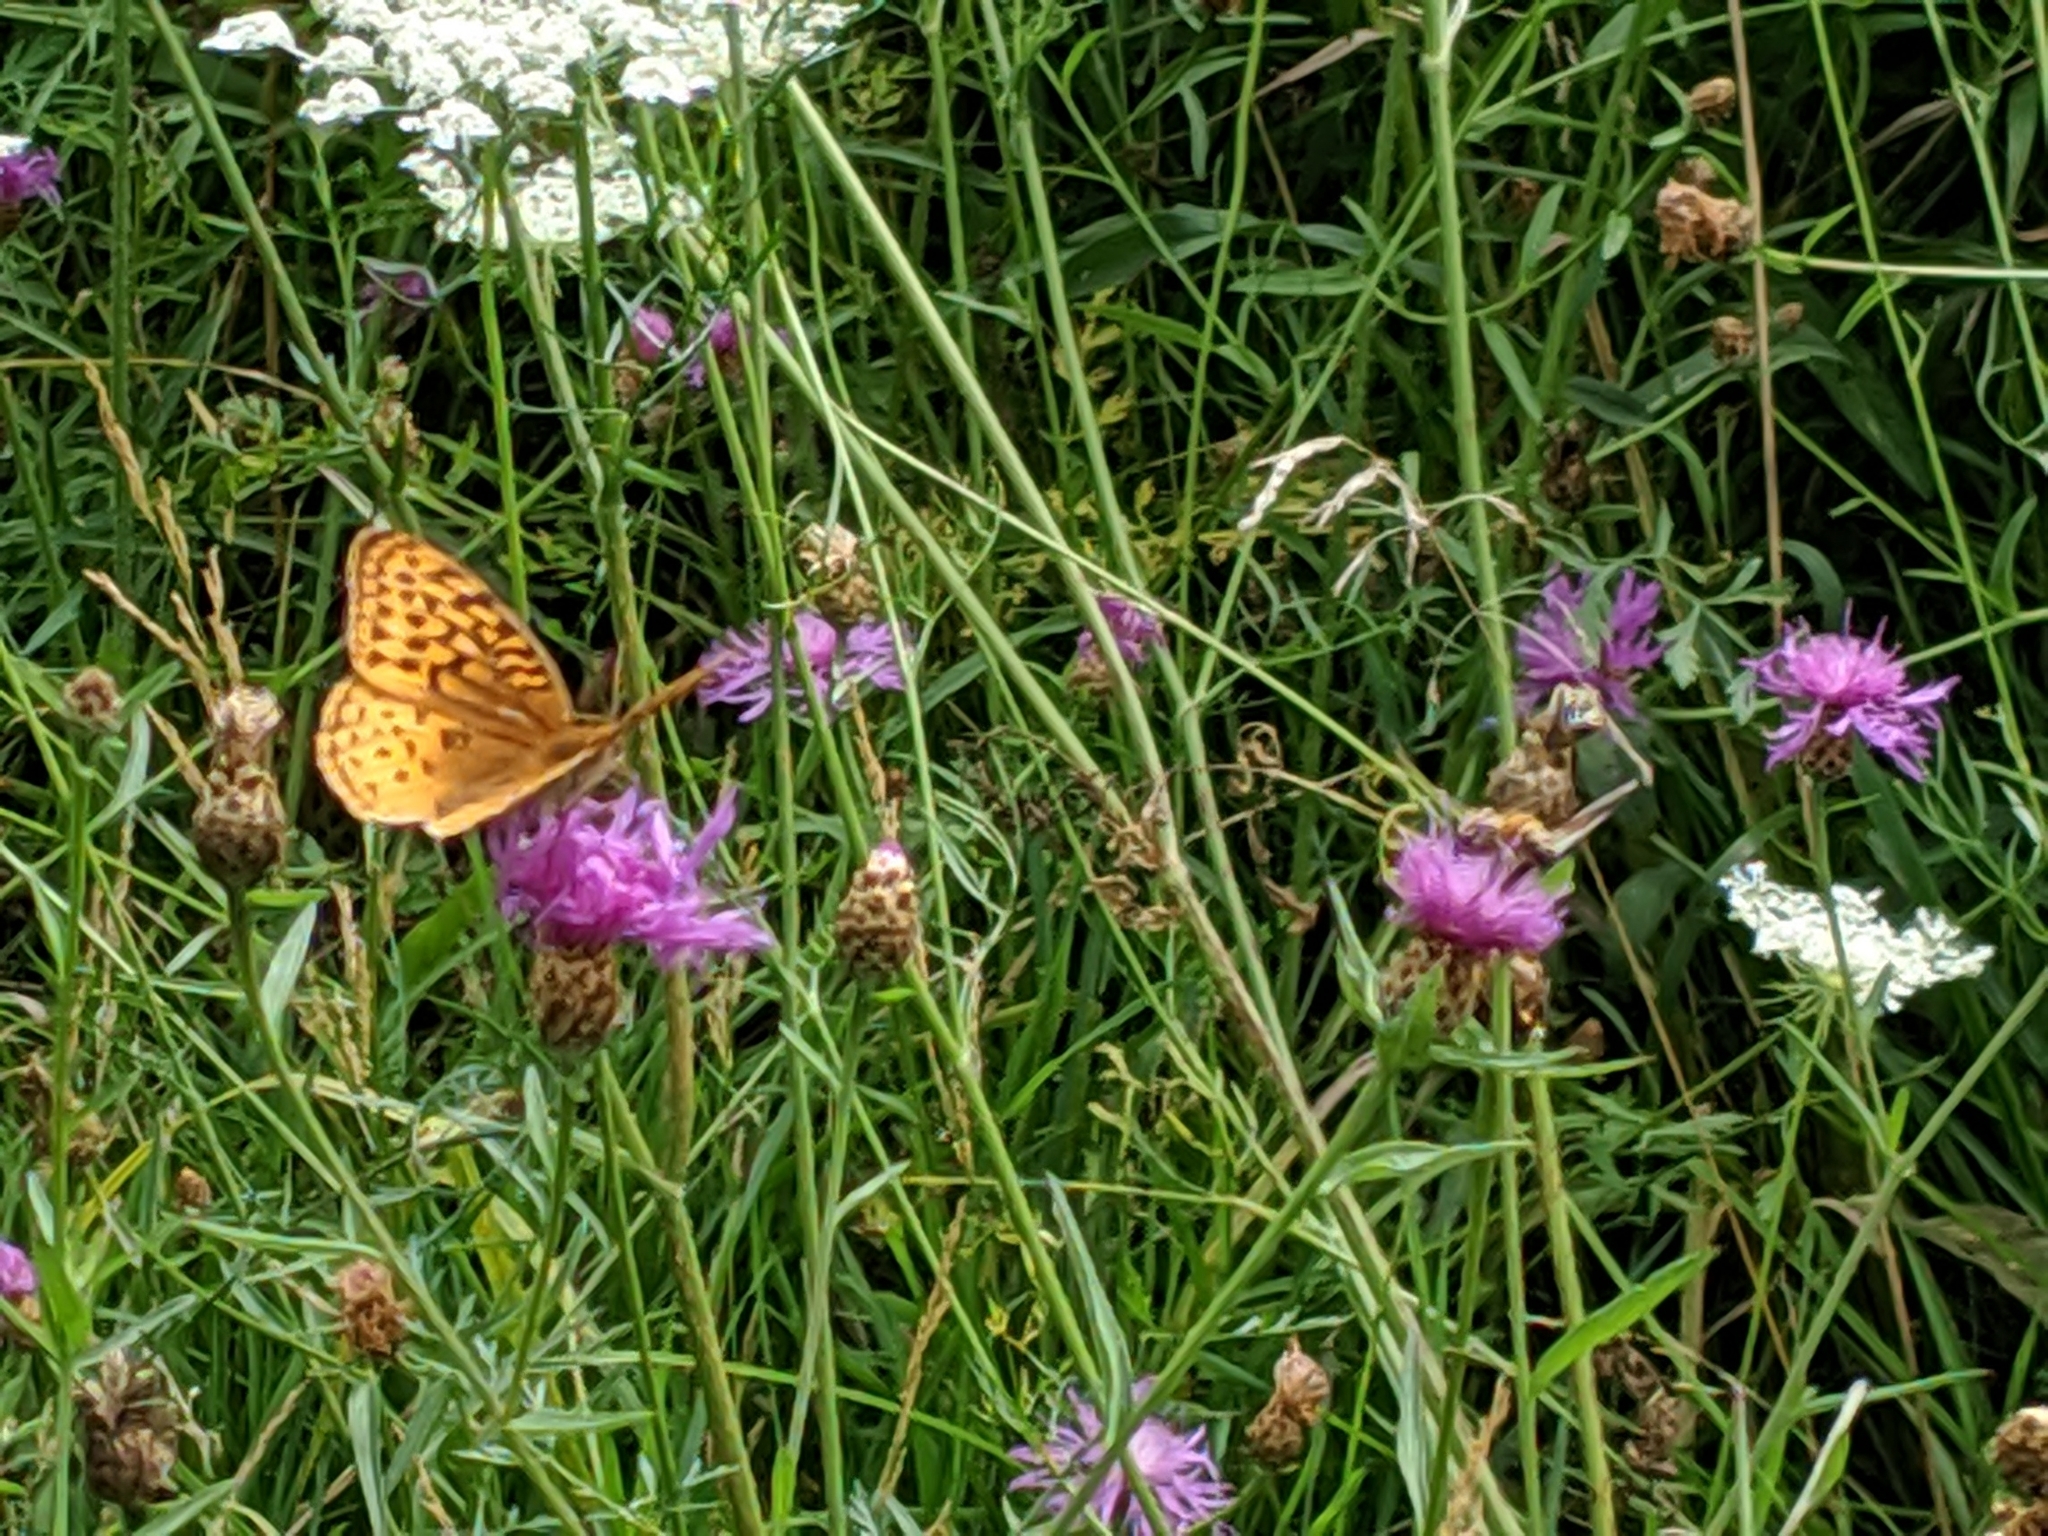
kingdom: Animalia
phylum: Arthropoda
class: Insecta
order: Lepidoptera
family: Nymphalidae
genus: Speyeria
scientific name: Speyeria cybele
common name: Great spangled fritillary
